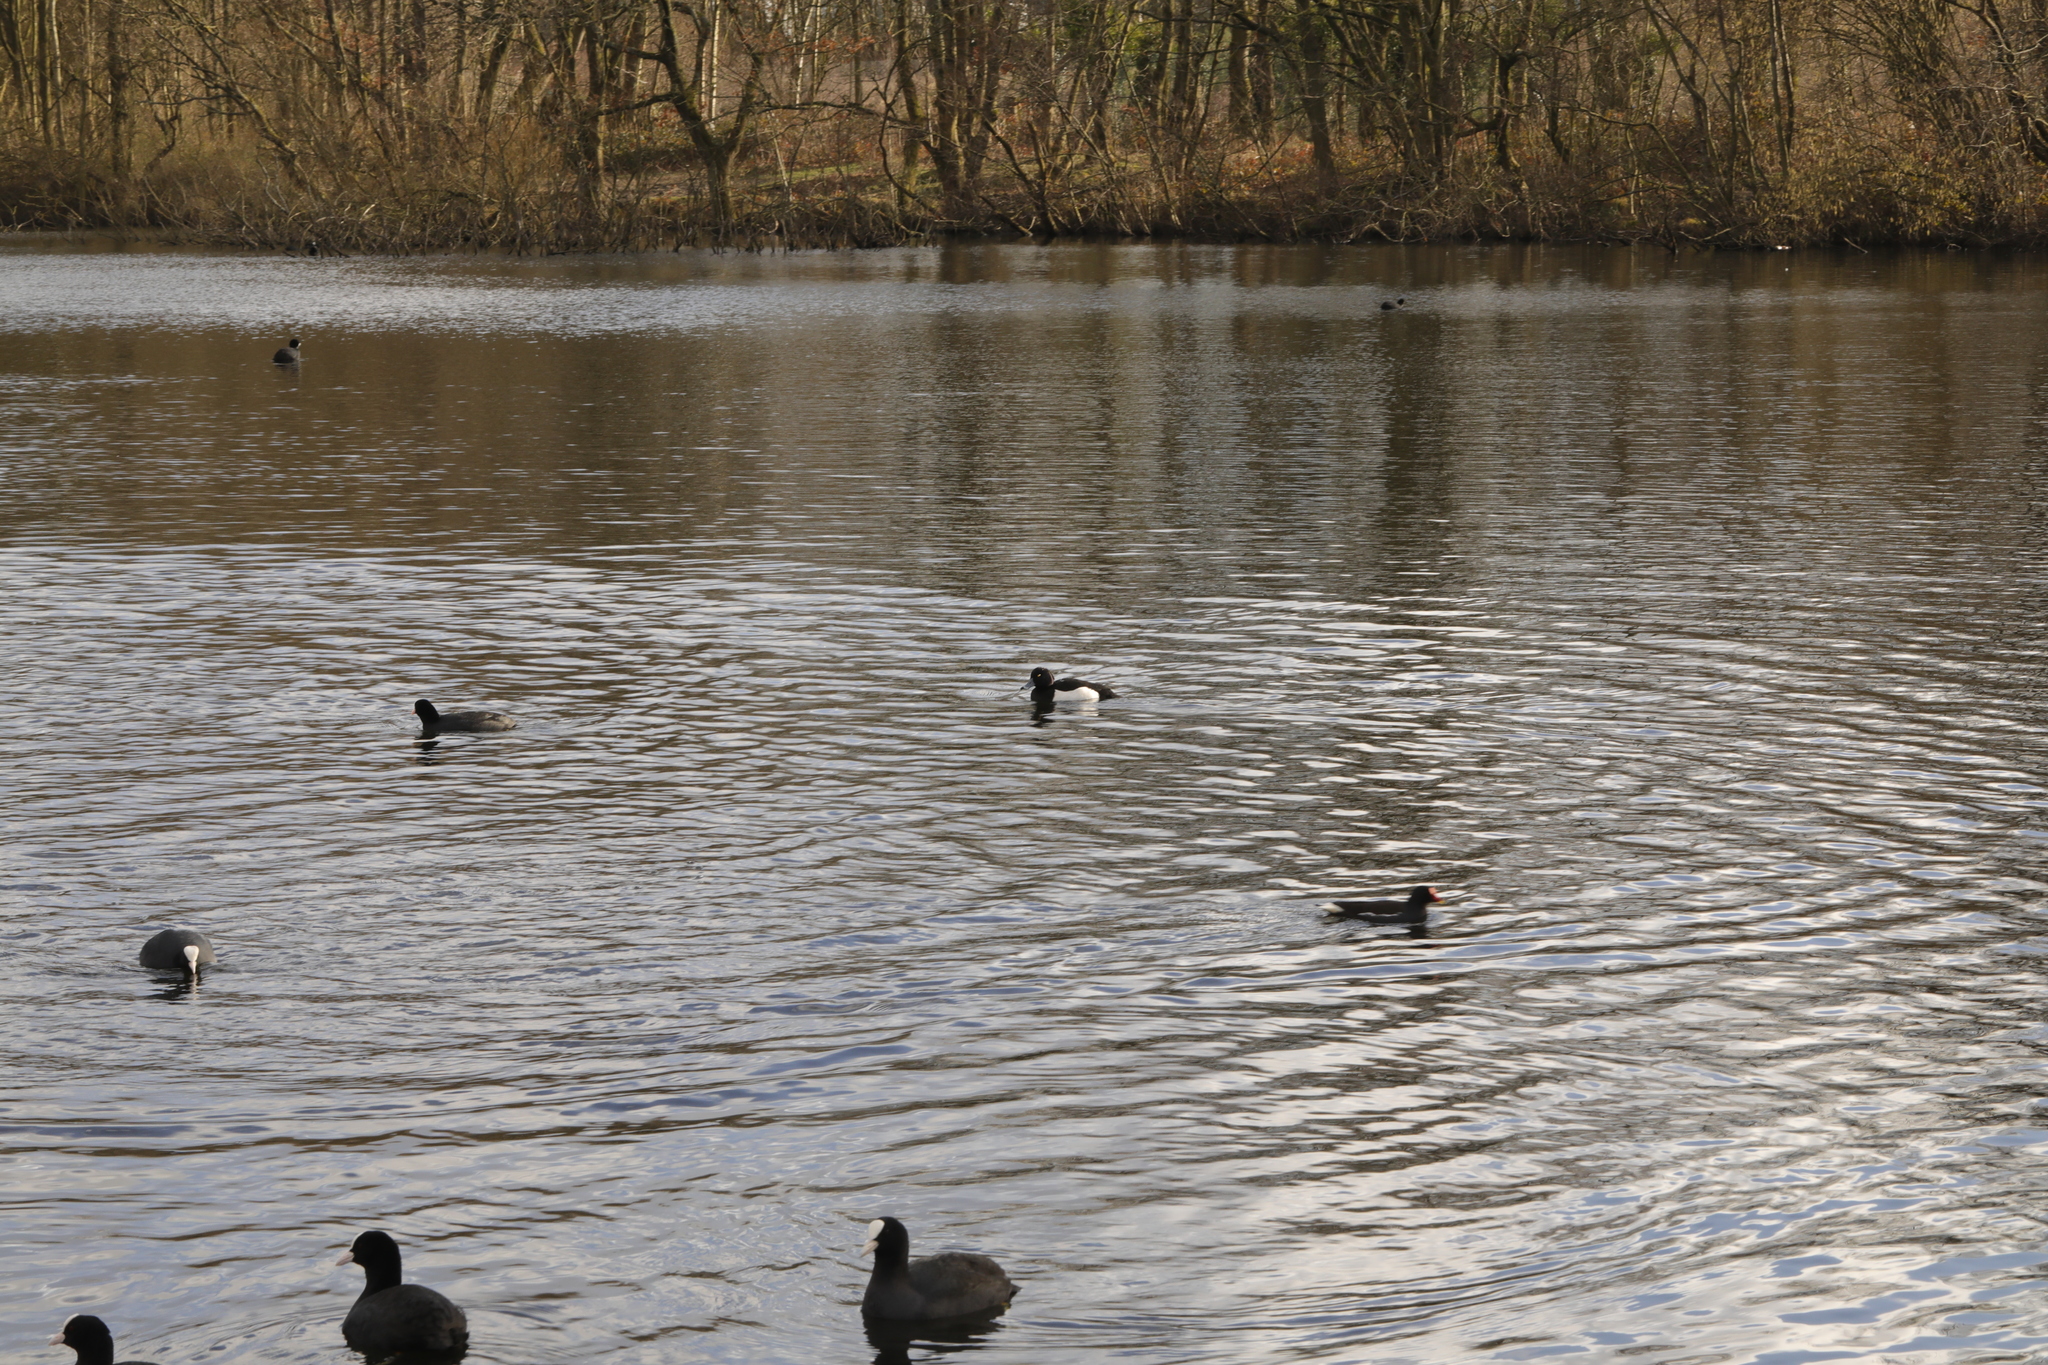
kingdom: Animalia
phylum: Chordata
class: Aves
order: Anseriformes
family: Anatidae
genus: Aythya
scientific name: Aythya fuligula
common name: Tufted duck
